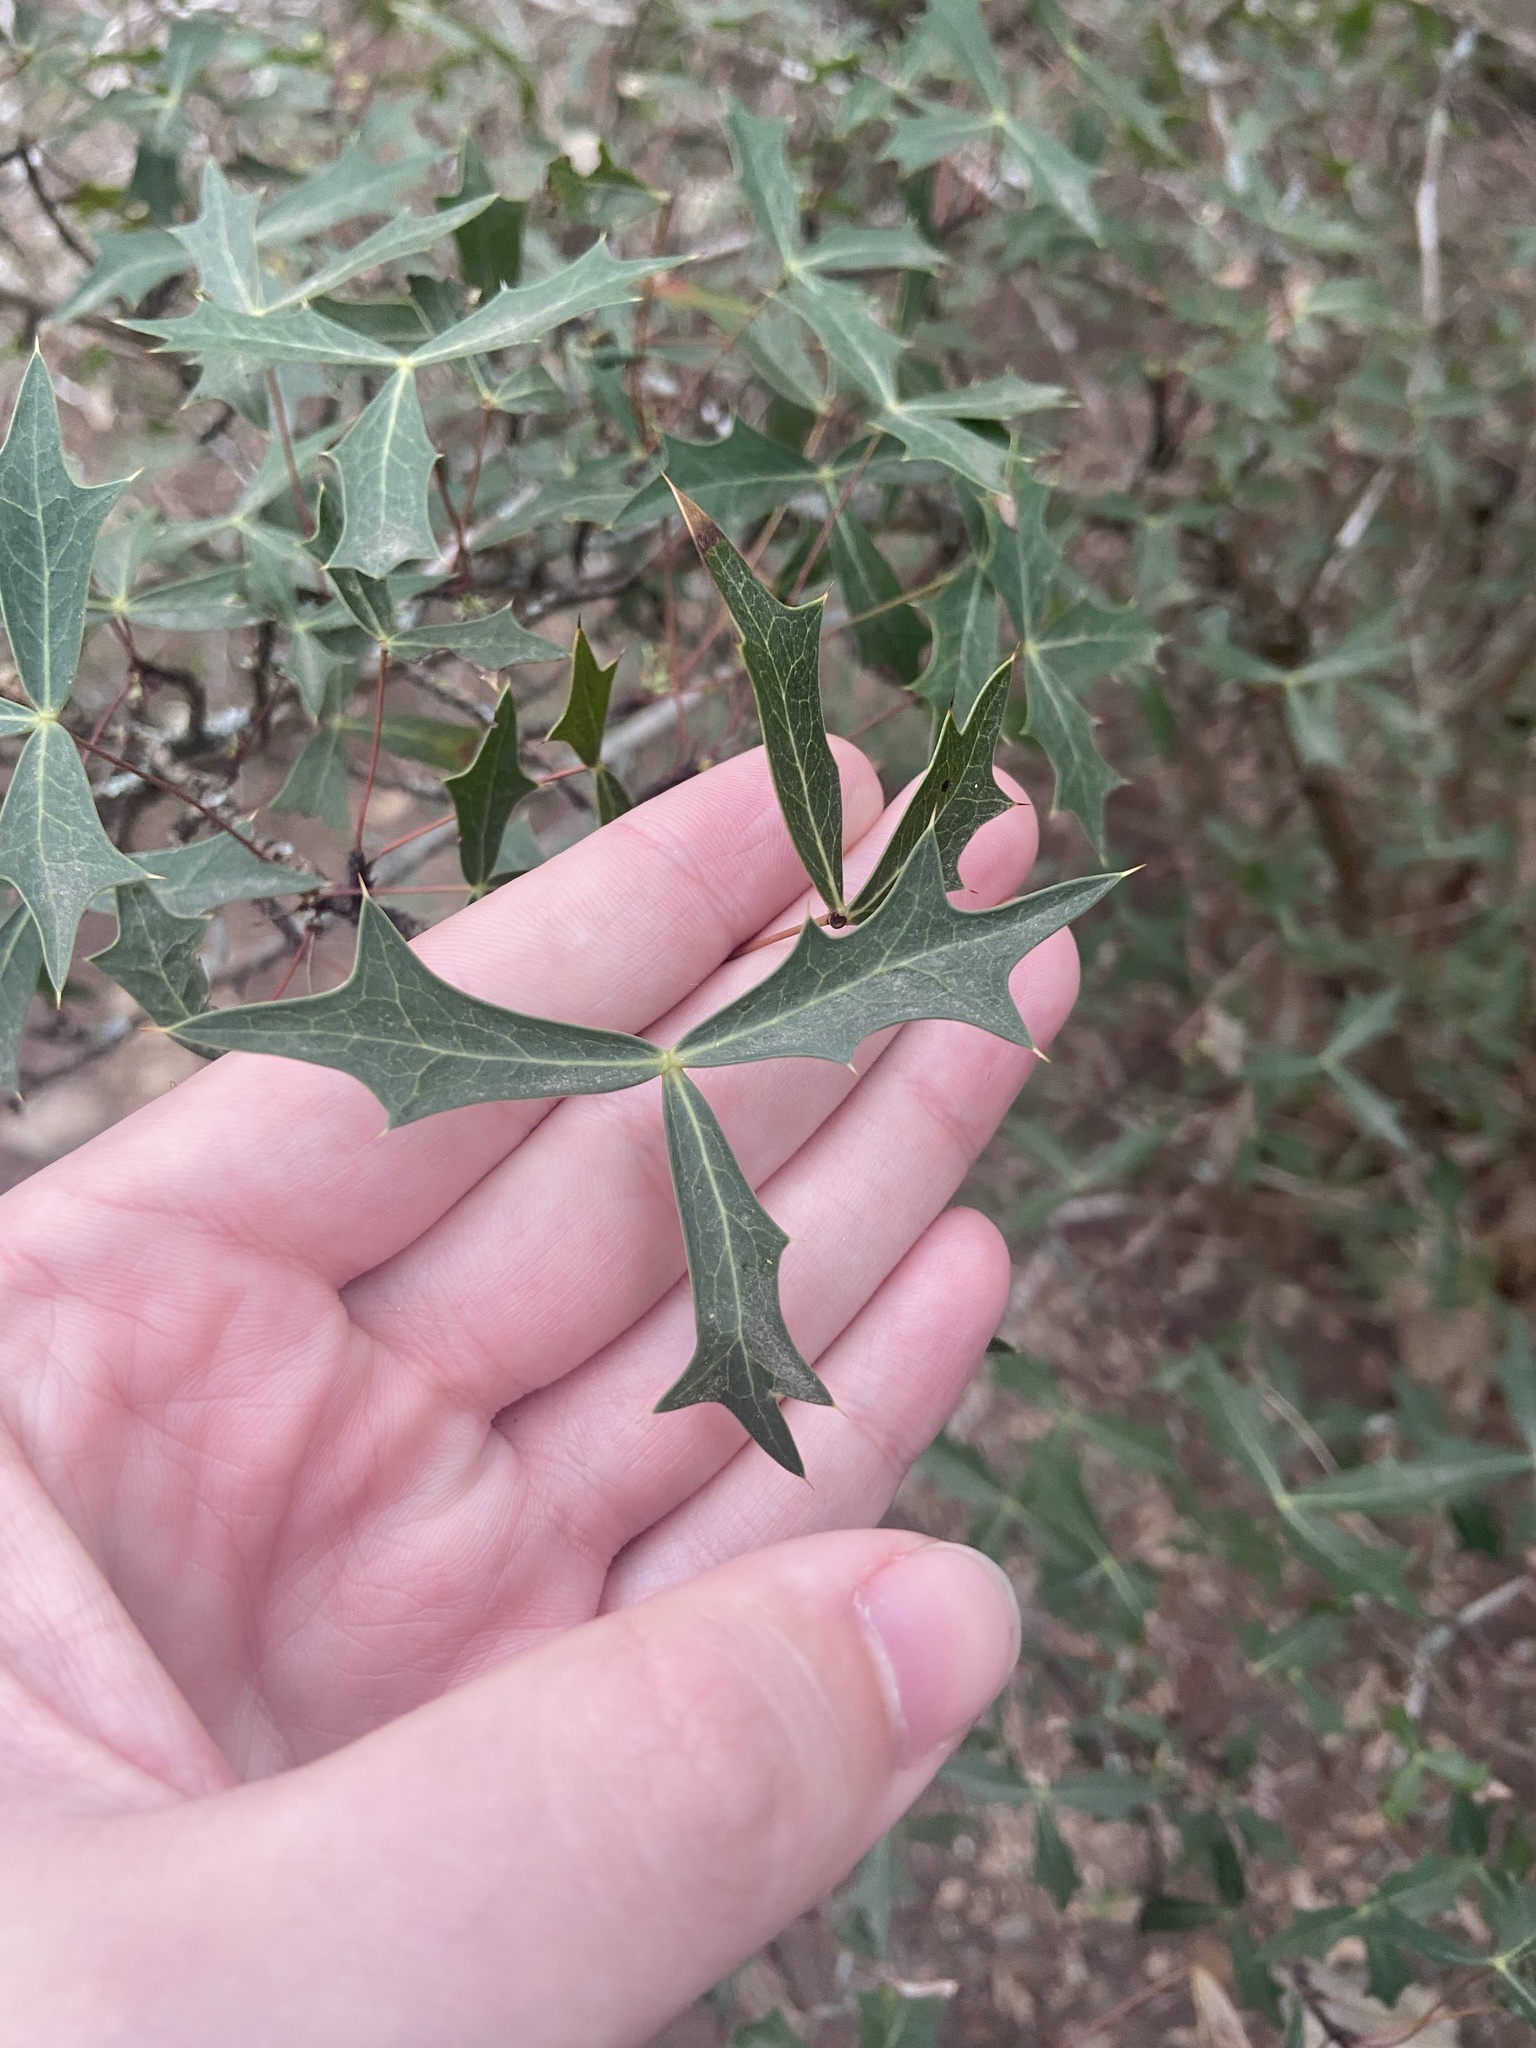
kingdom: Plantae
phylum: Tracheophyta
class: Magnoliopsida
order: Ranunculales
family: Berberidaceae
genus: Alloberberis
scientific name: Alloberberis trifoliolata
